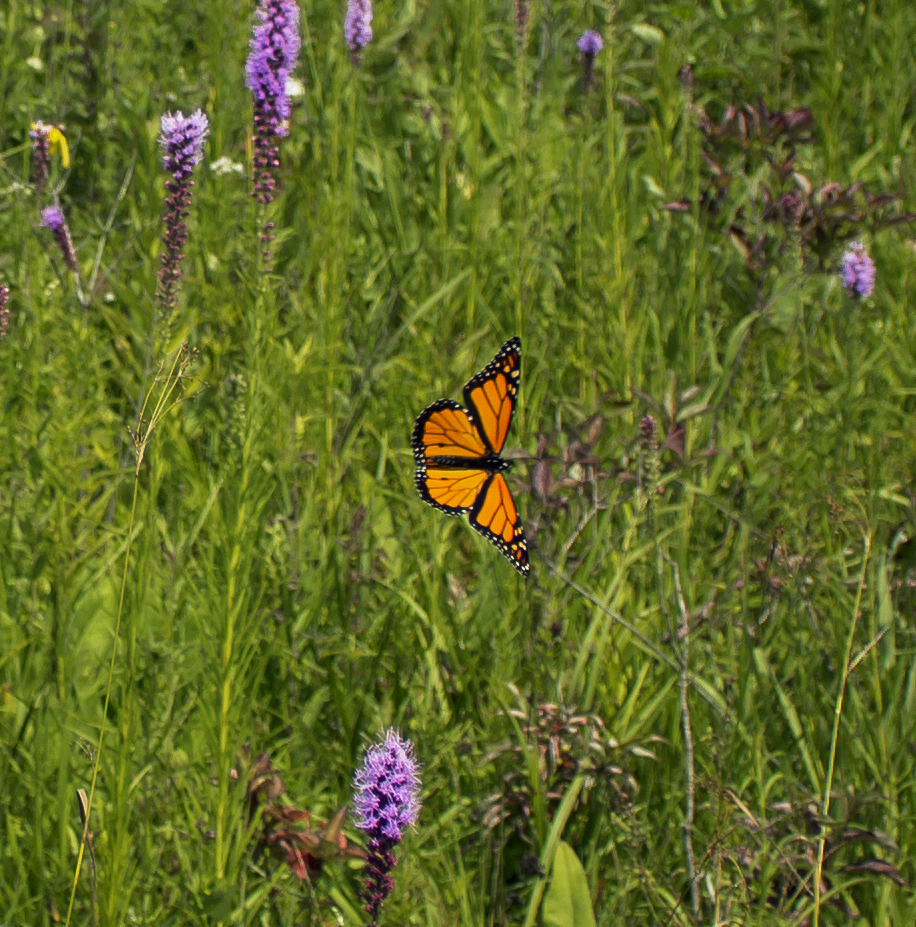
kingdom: Animalia
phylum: Arthropoda
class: Insecta
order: Lepidoptera
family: Nymphalidae
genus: Danaus
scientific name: Danaus plexippus
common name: Monarch
